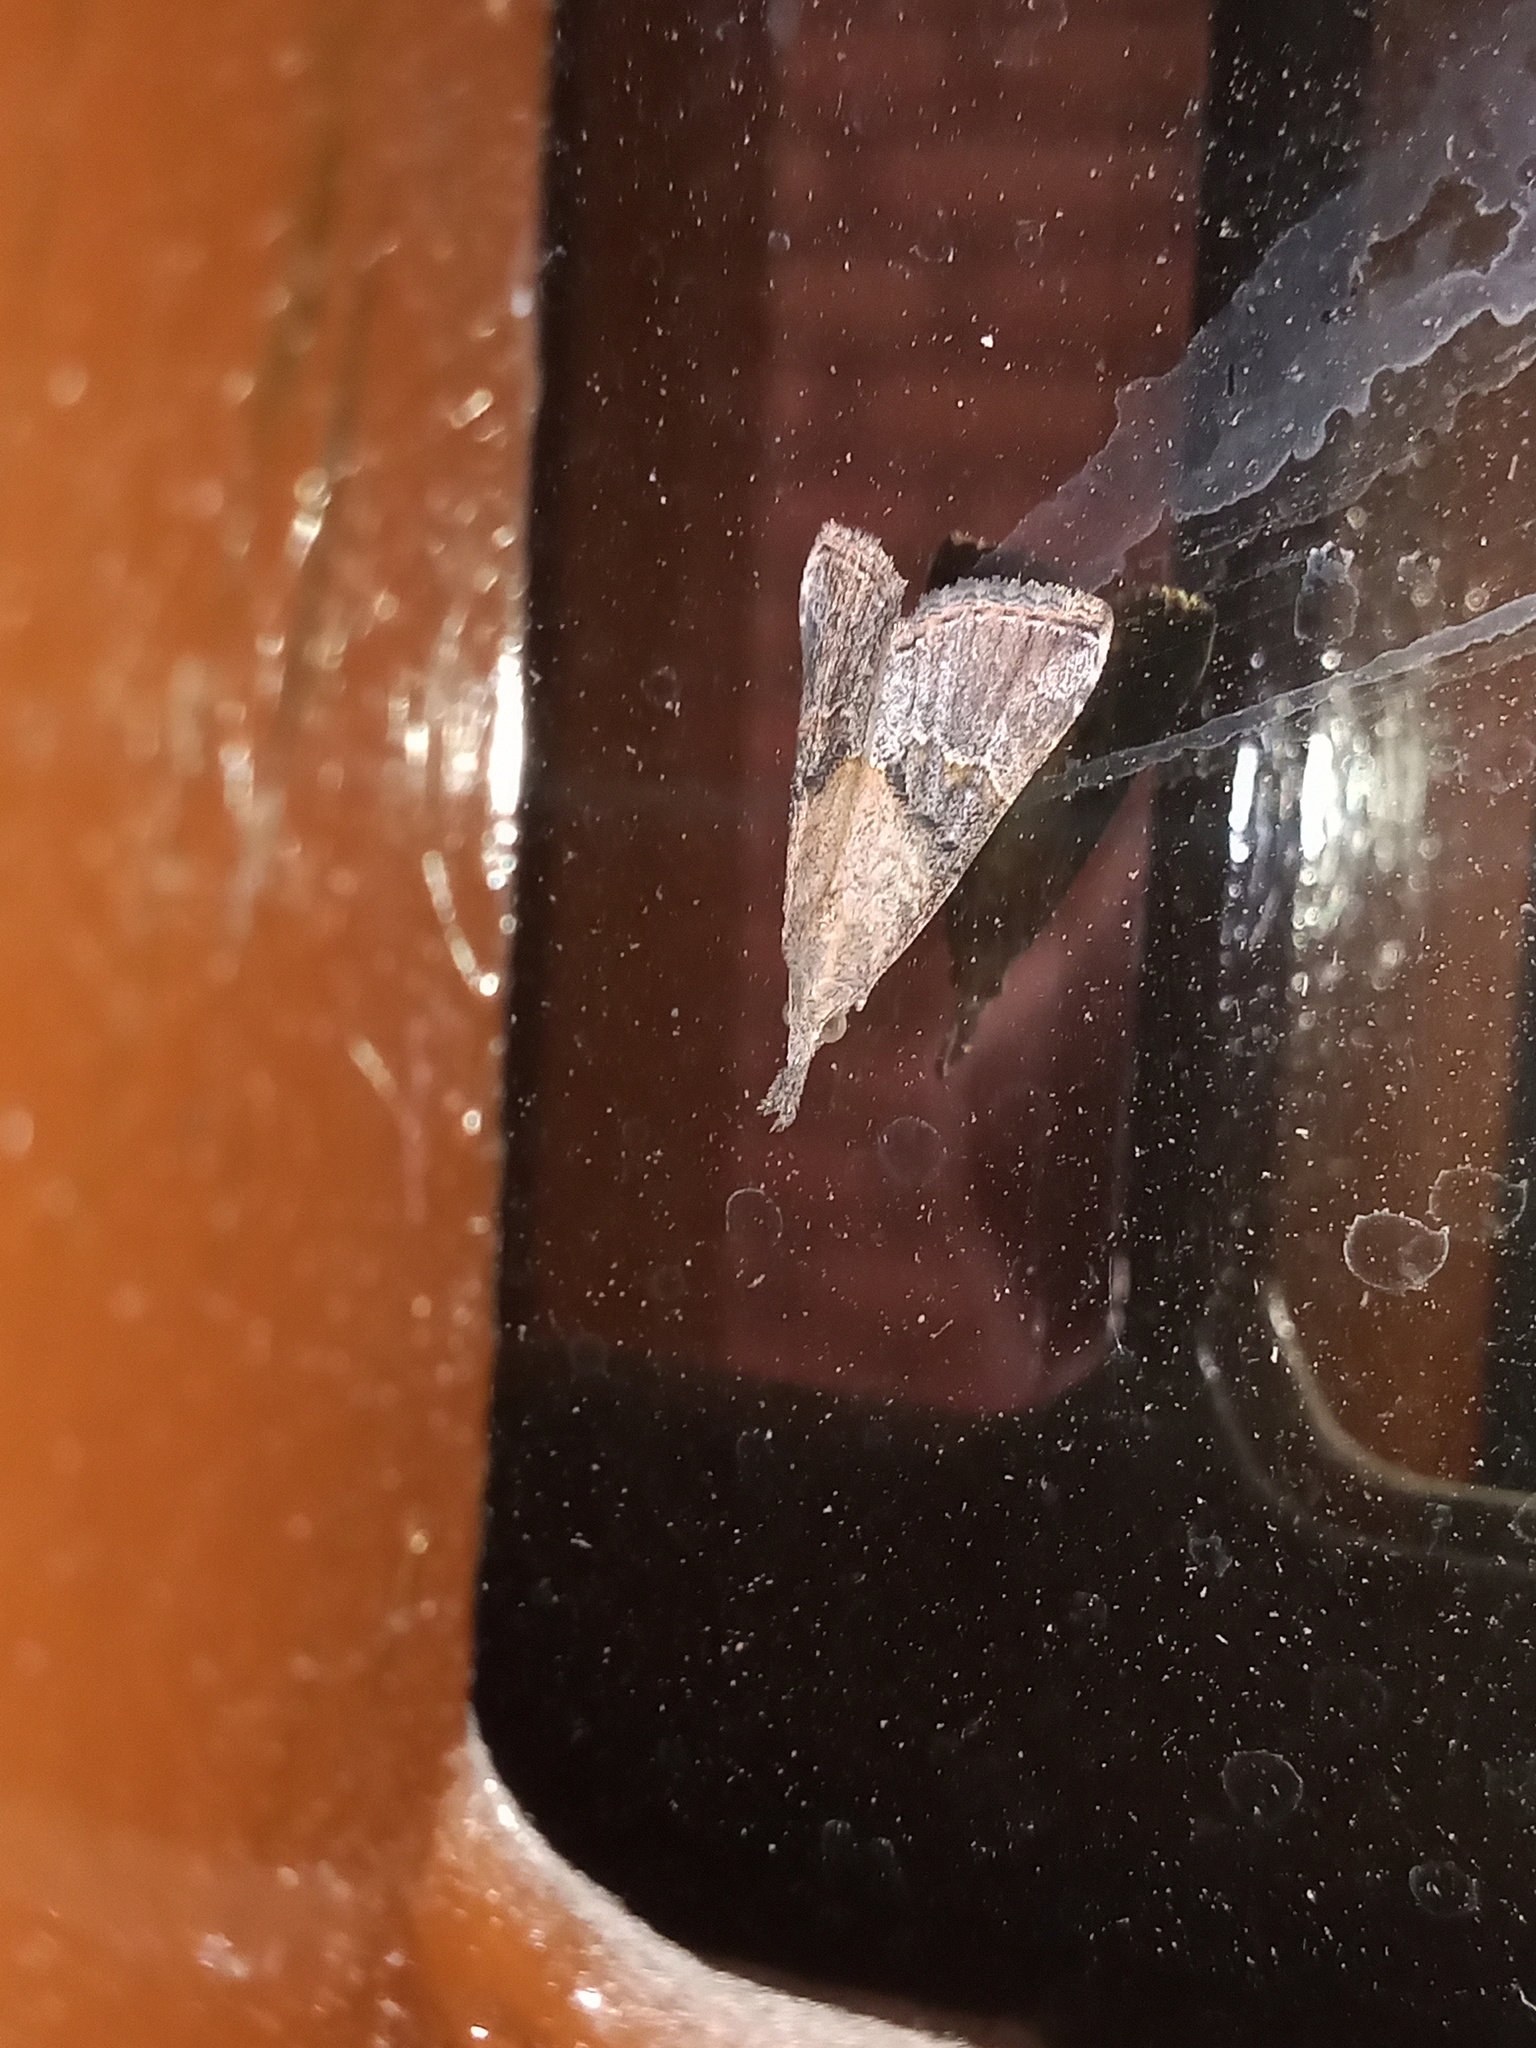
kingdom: Animalia
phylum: Arthropoda
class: Insecta
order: Lepidoptera
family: Erebidae
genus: Hypena
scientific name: Hypena minualis
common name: Sooty snout
